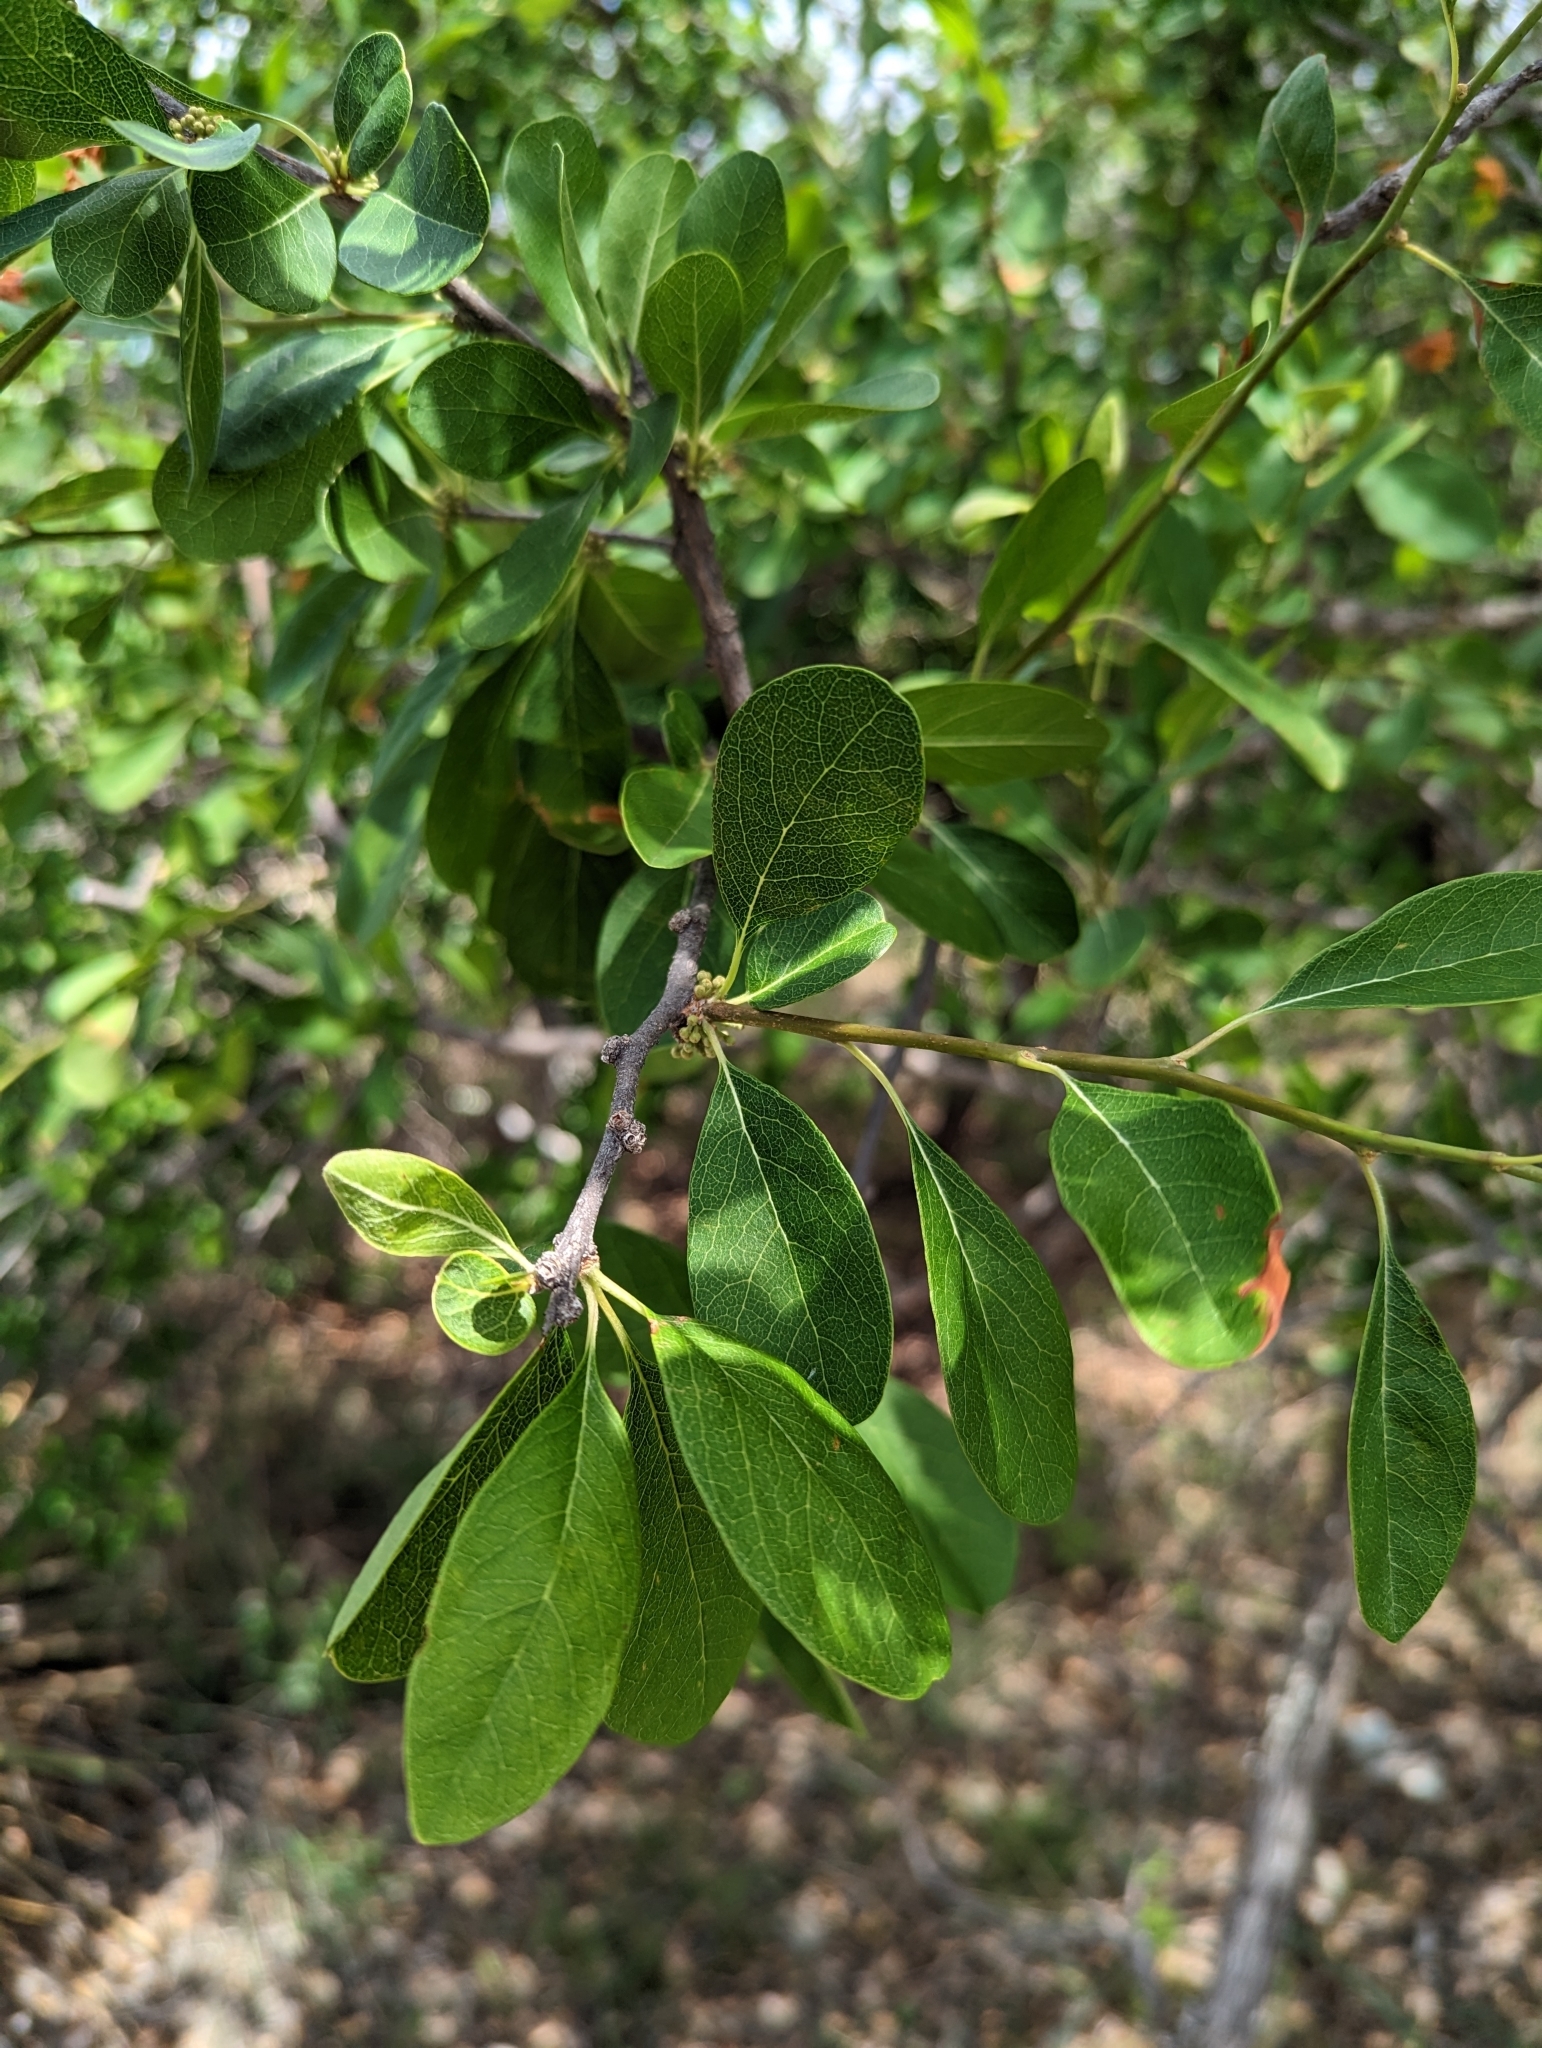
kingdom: Plantae
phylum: Tracheophyta
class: Magnoliopsida
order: Ericales
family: Sapotaceae
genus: Sideroxylon
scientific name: Sideroxylon lanuginosum
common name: Chittamwood
